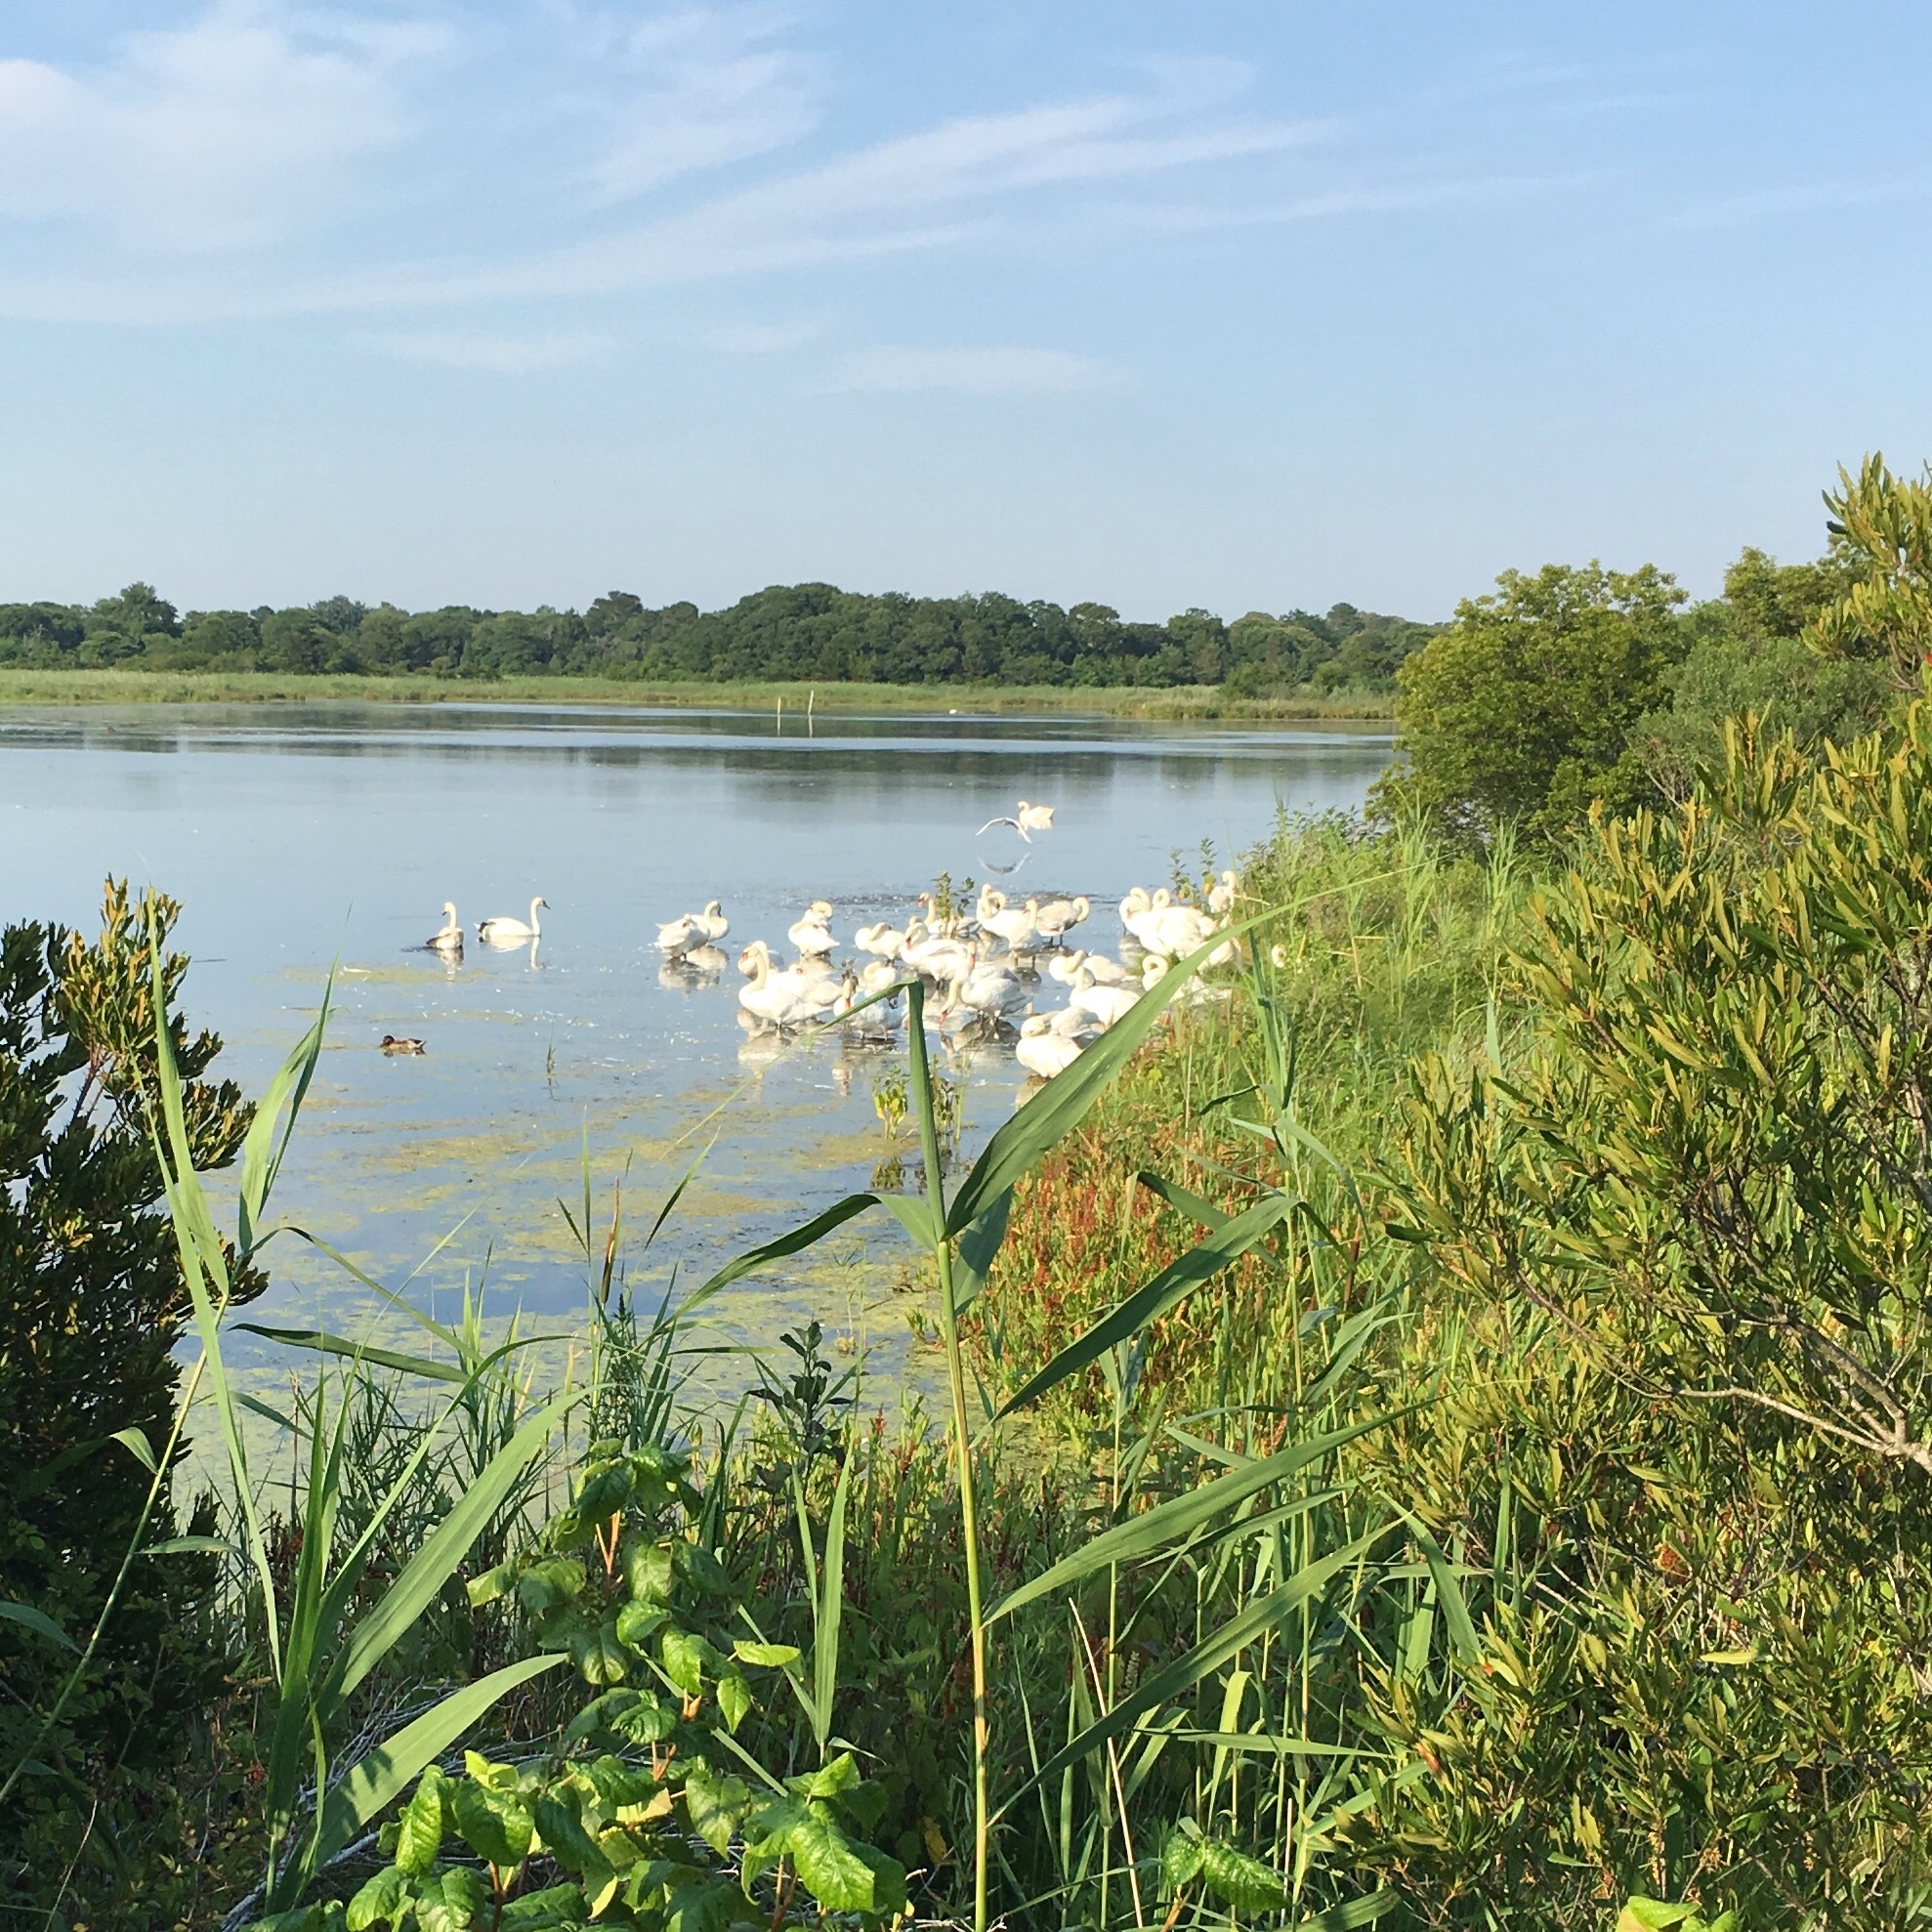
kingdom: Animalia
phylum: Chordata
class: Aves
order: Anseriformes
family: Anatidae
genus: Cygnus
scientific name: Cygnus olor
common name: Mute swan
